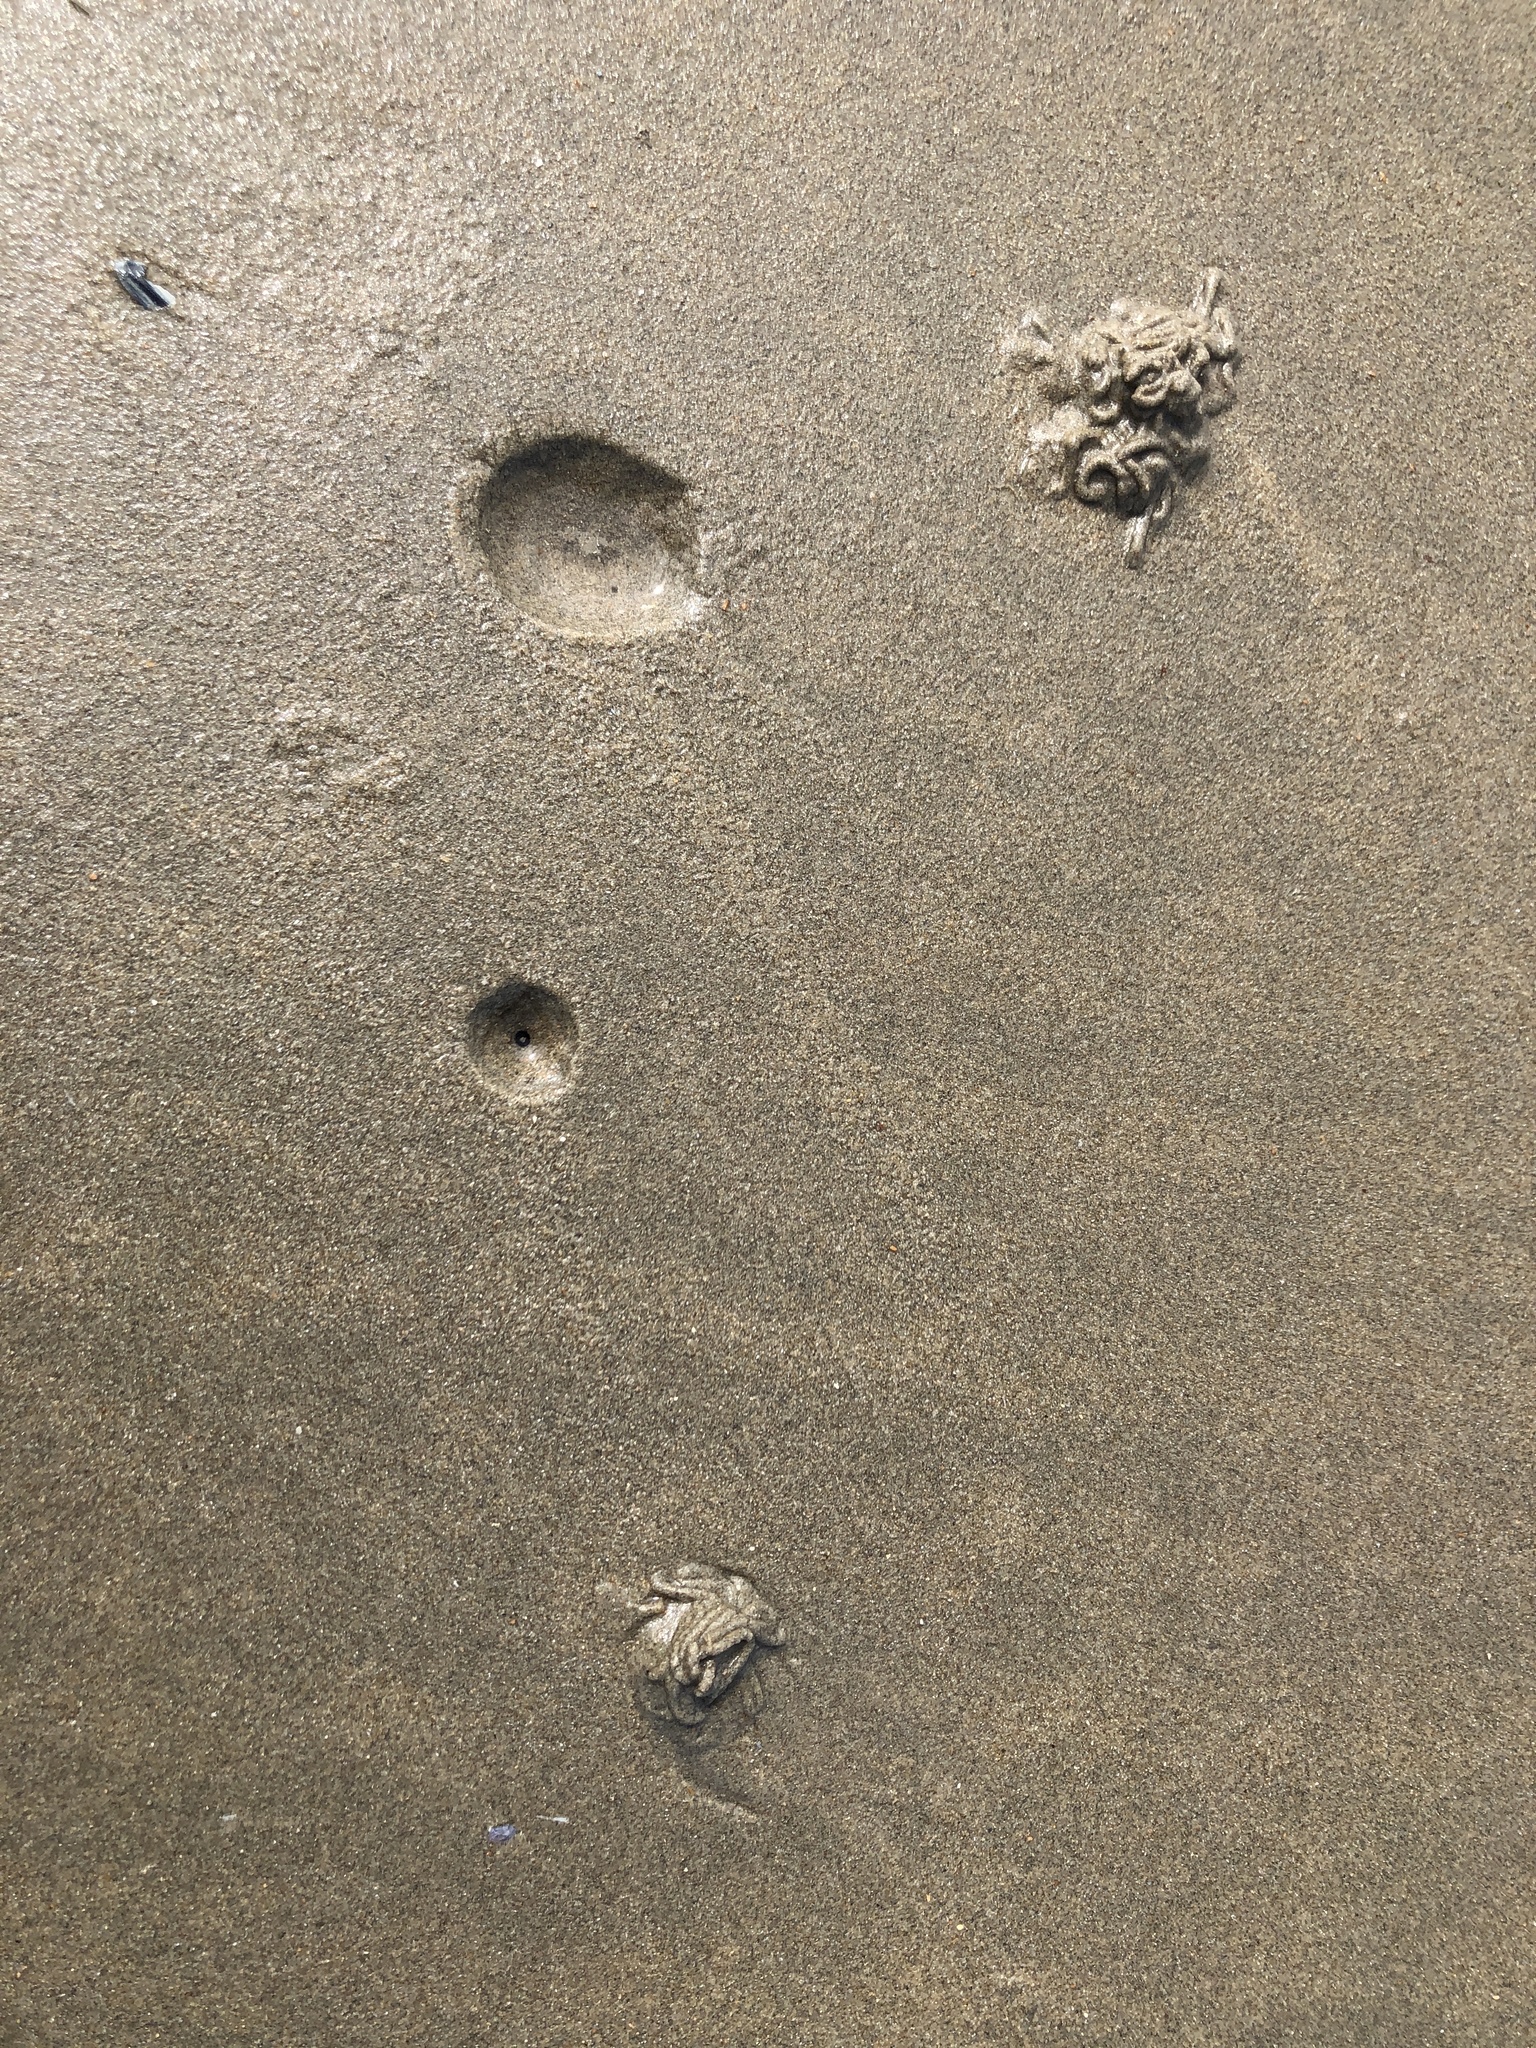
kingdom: Animalia
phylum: Annelida
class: Polychaeta
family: Arenicolidae
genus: Arenicola
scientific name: Arenicola marina
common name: Blow lugworm
